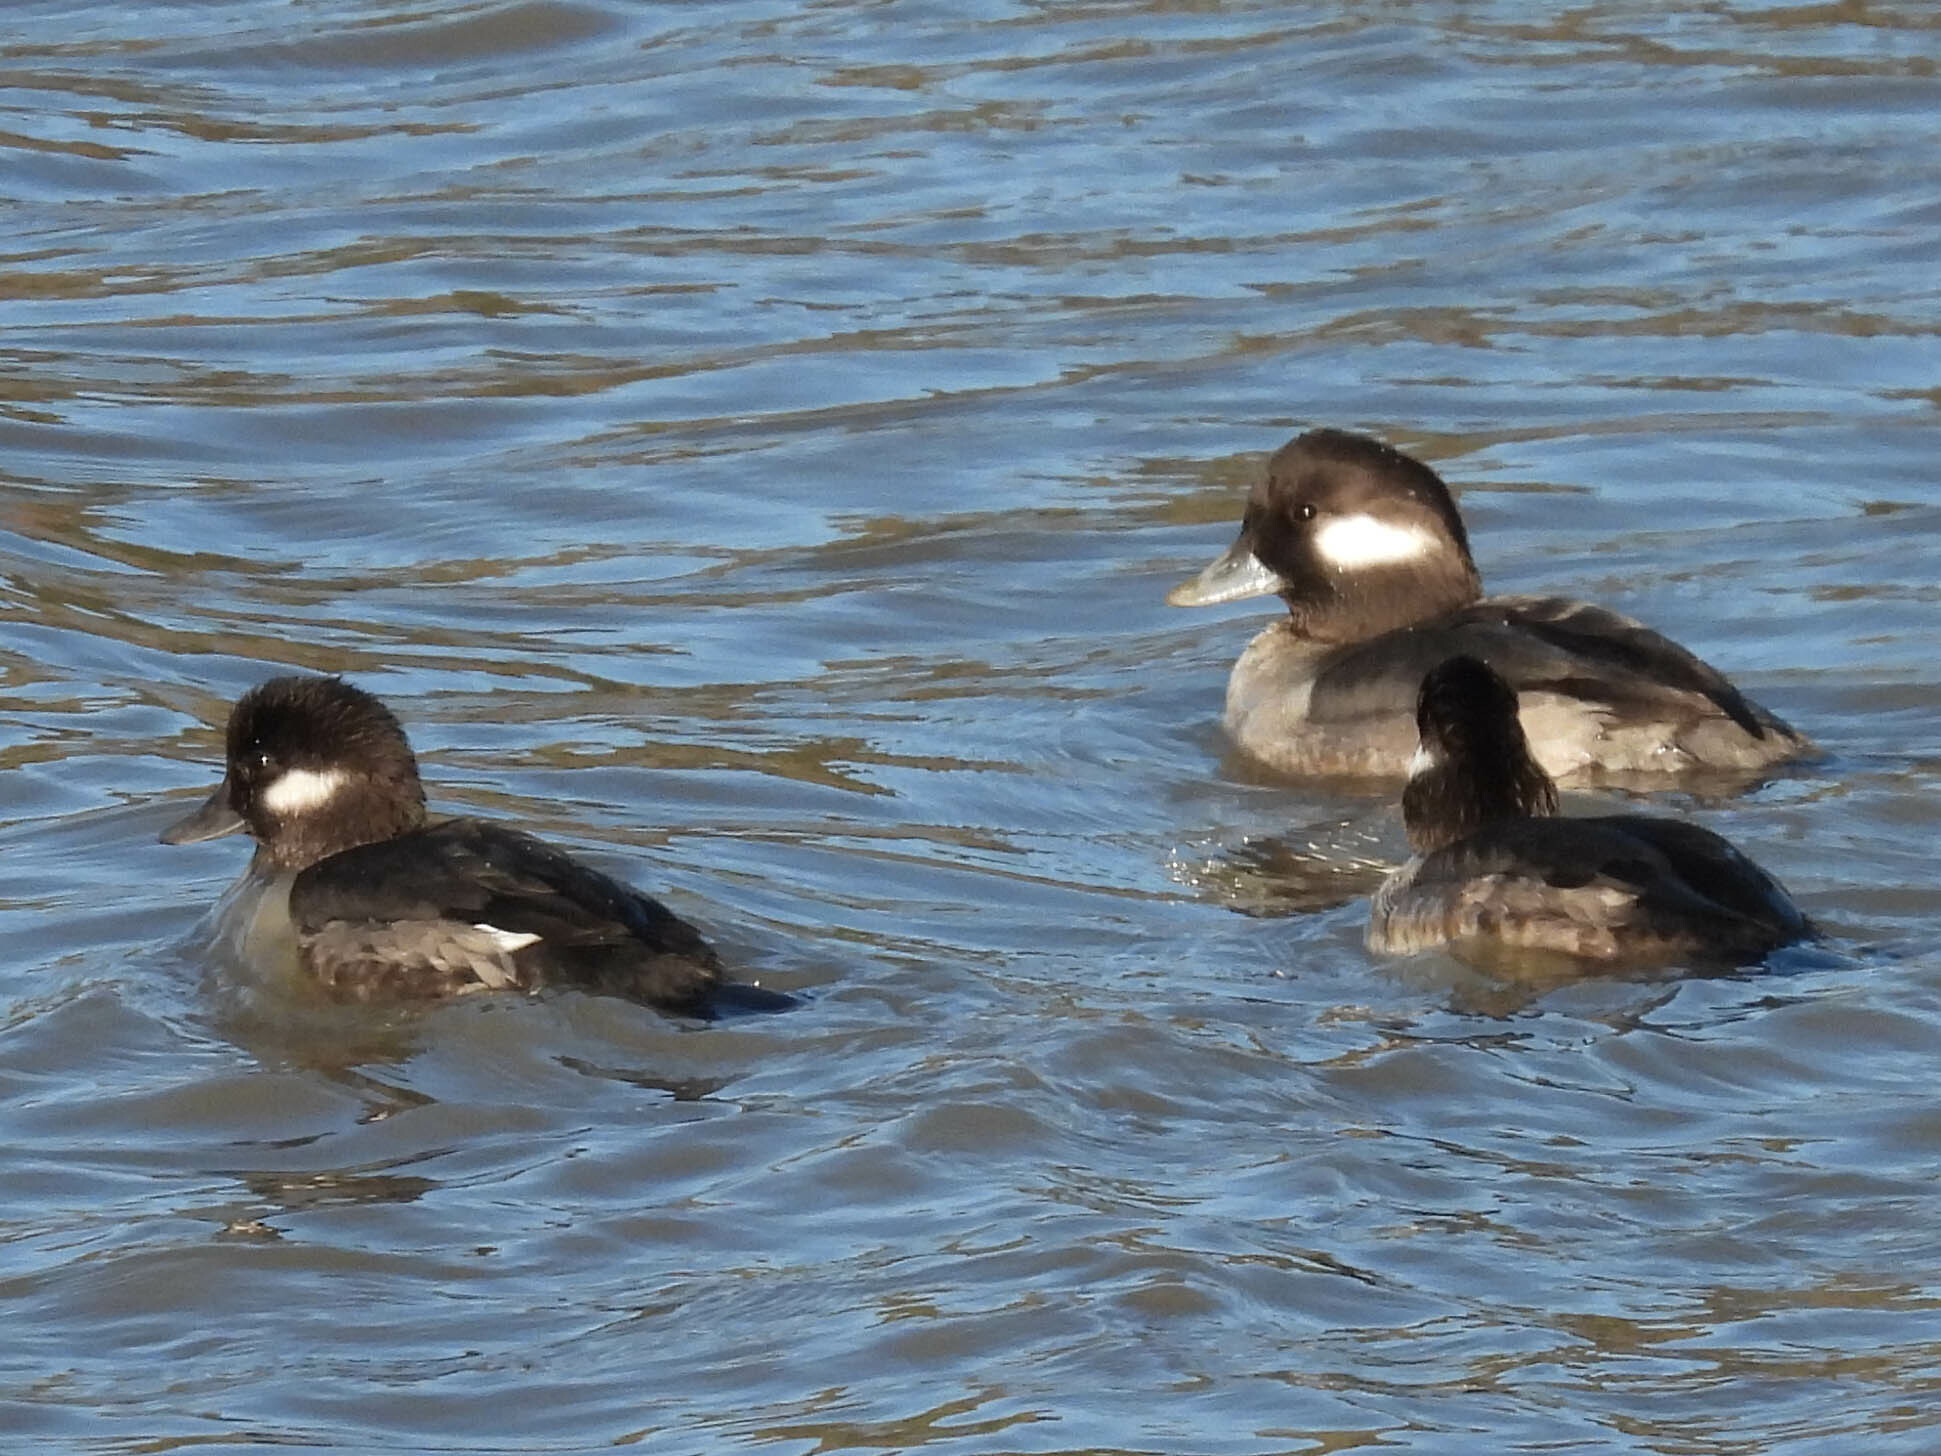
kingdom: Animalia
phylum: Chordata
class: Aves
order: Anseriformes
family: Anatidae
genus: Bucephala
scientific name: Bucephala albeola
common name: Bufflehead
